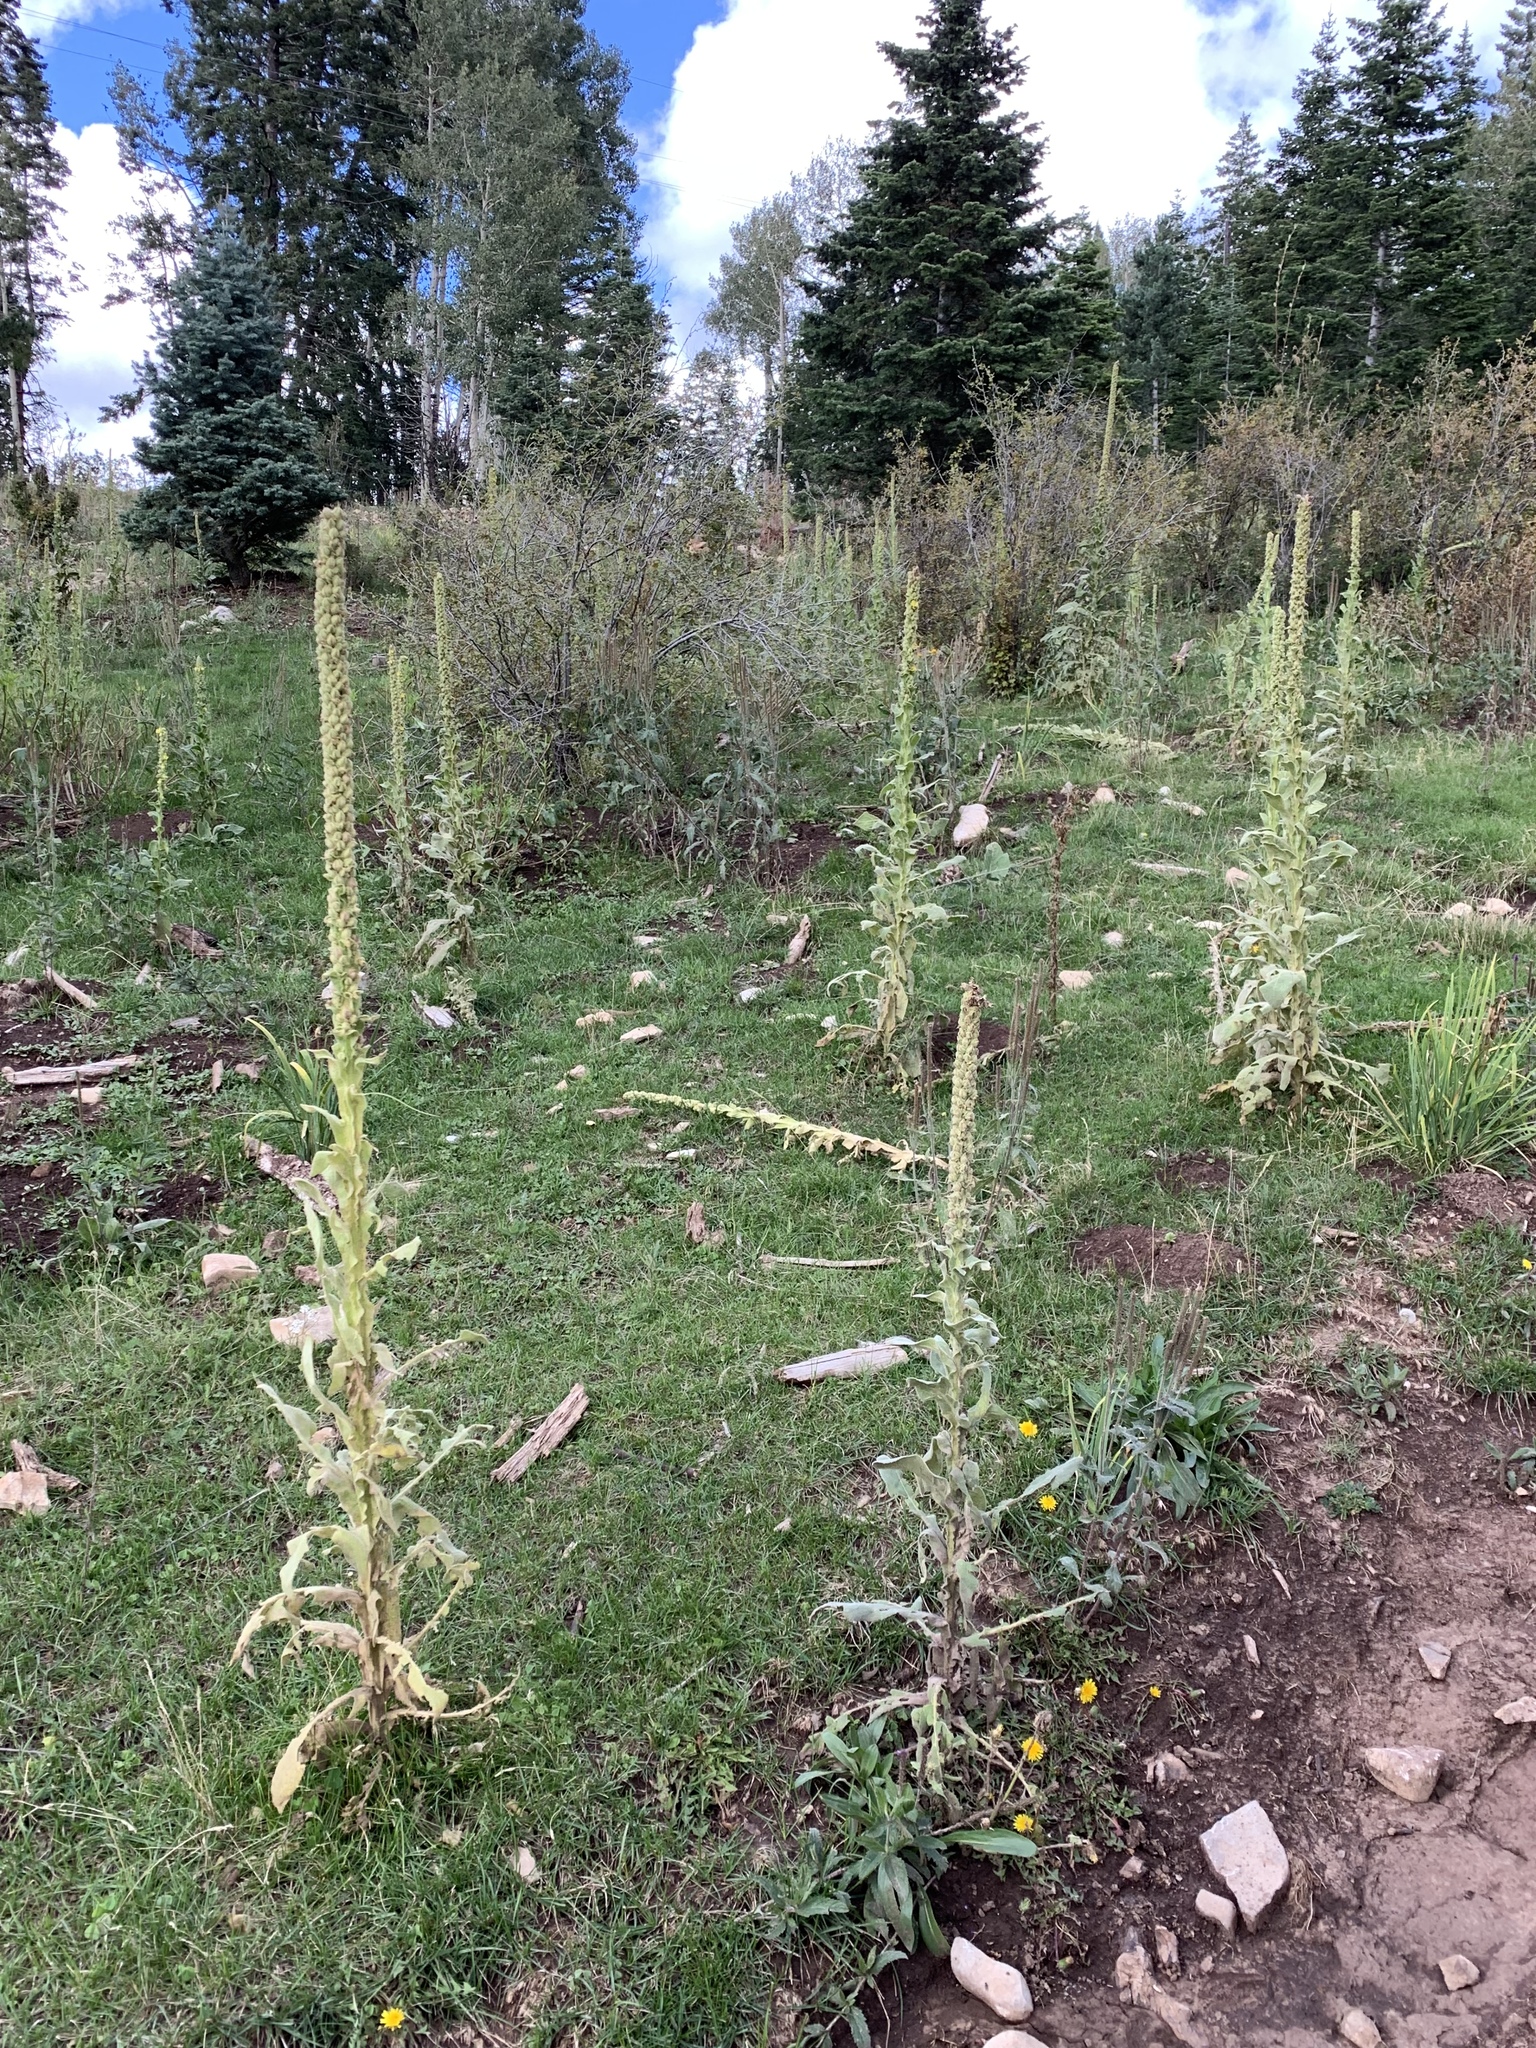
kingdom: Plantae
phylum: Tracheophyta
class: Magnoliopsida
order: Lamiales
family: Scrophulariaceae
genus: Verbascum
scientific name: Verbascum thapsus
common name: Common mullein
